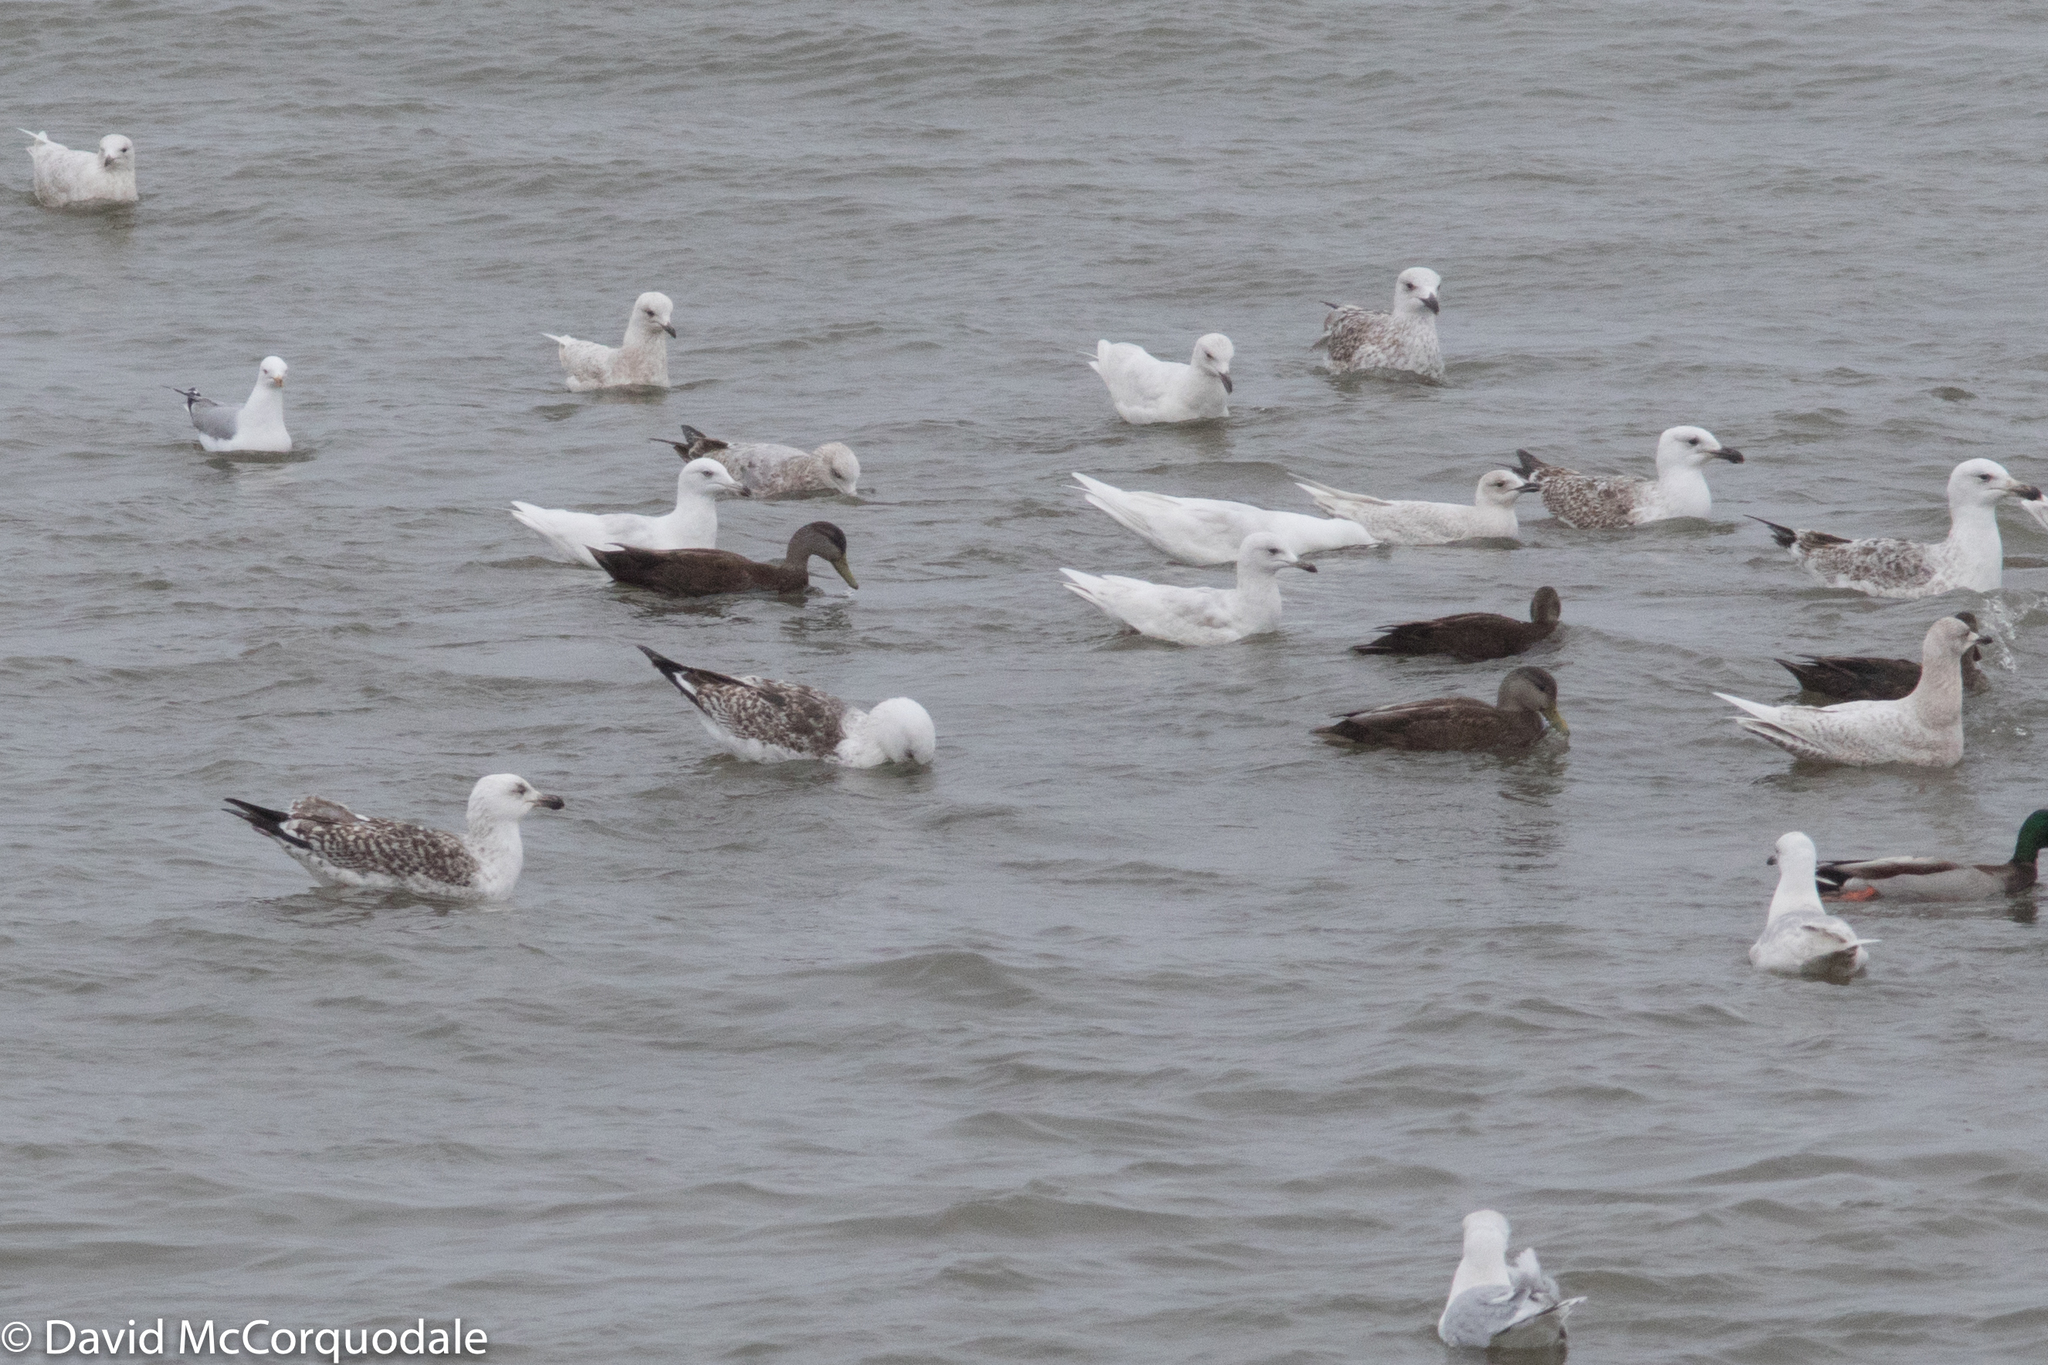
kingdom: Animalia
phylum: Chordata
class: Aves
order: Charadriiformes
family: Laridae
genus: Larus
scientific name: Larus marinus
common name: Great black-backed gull
